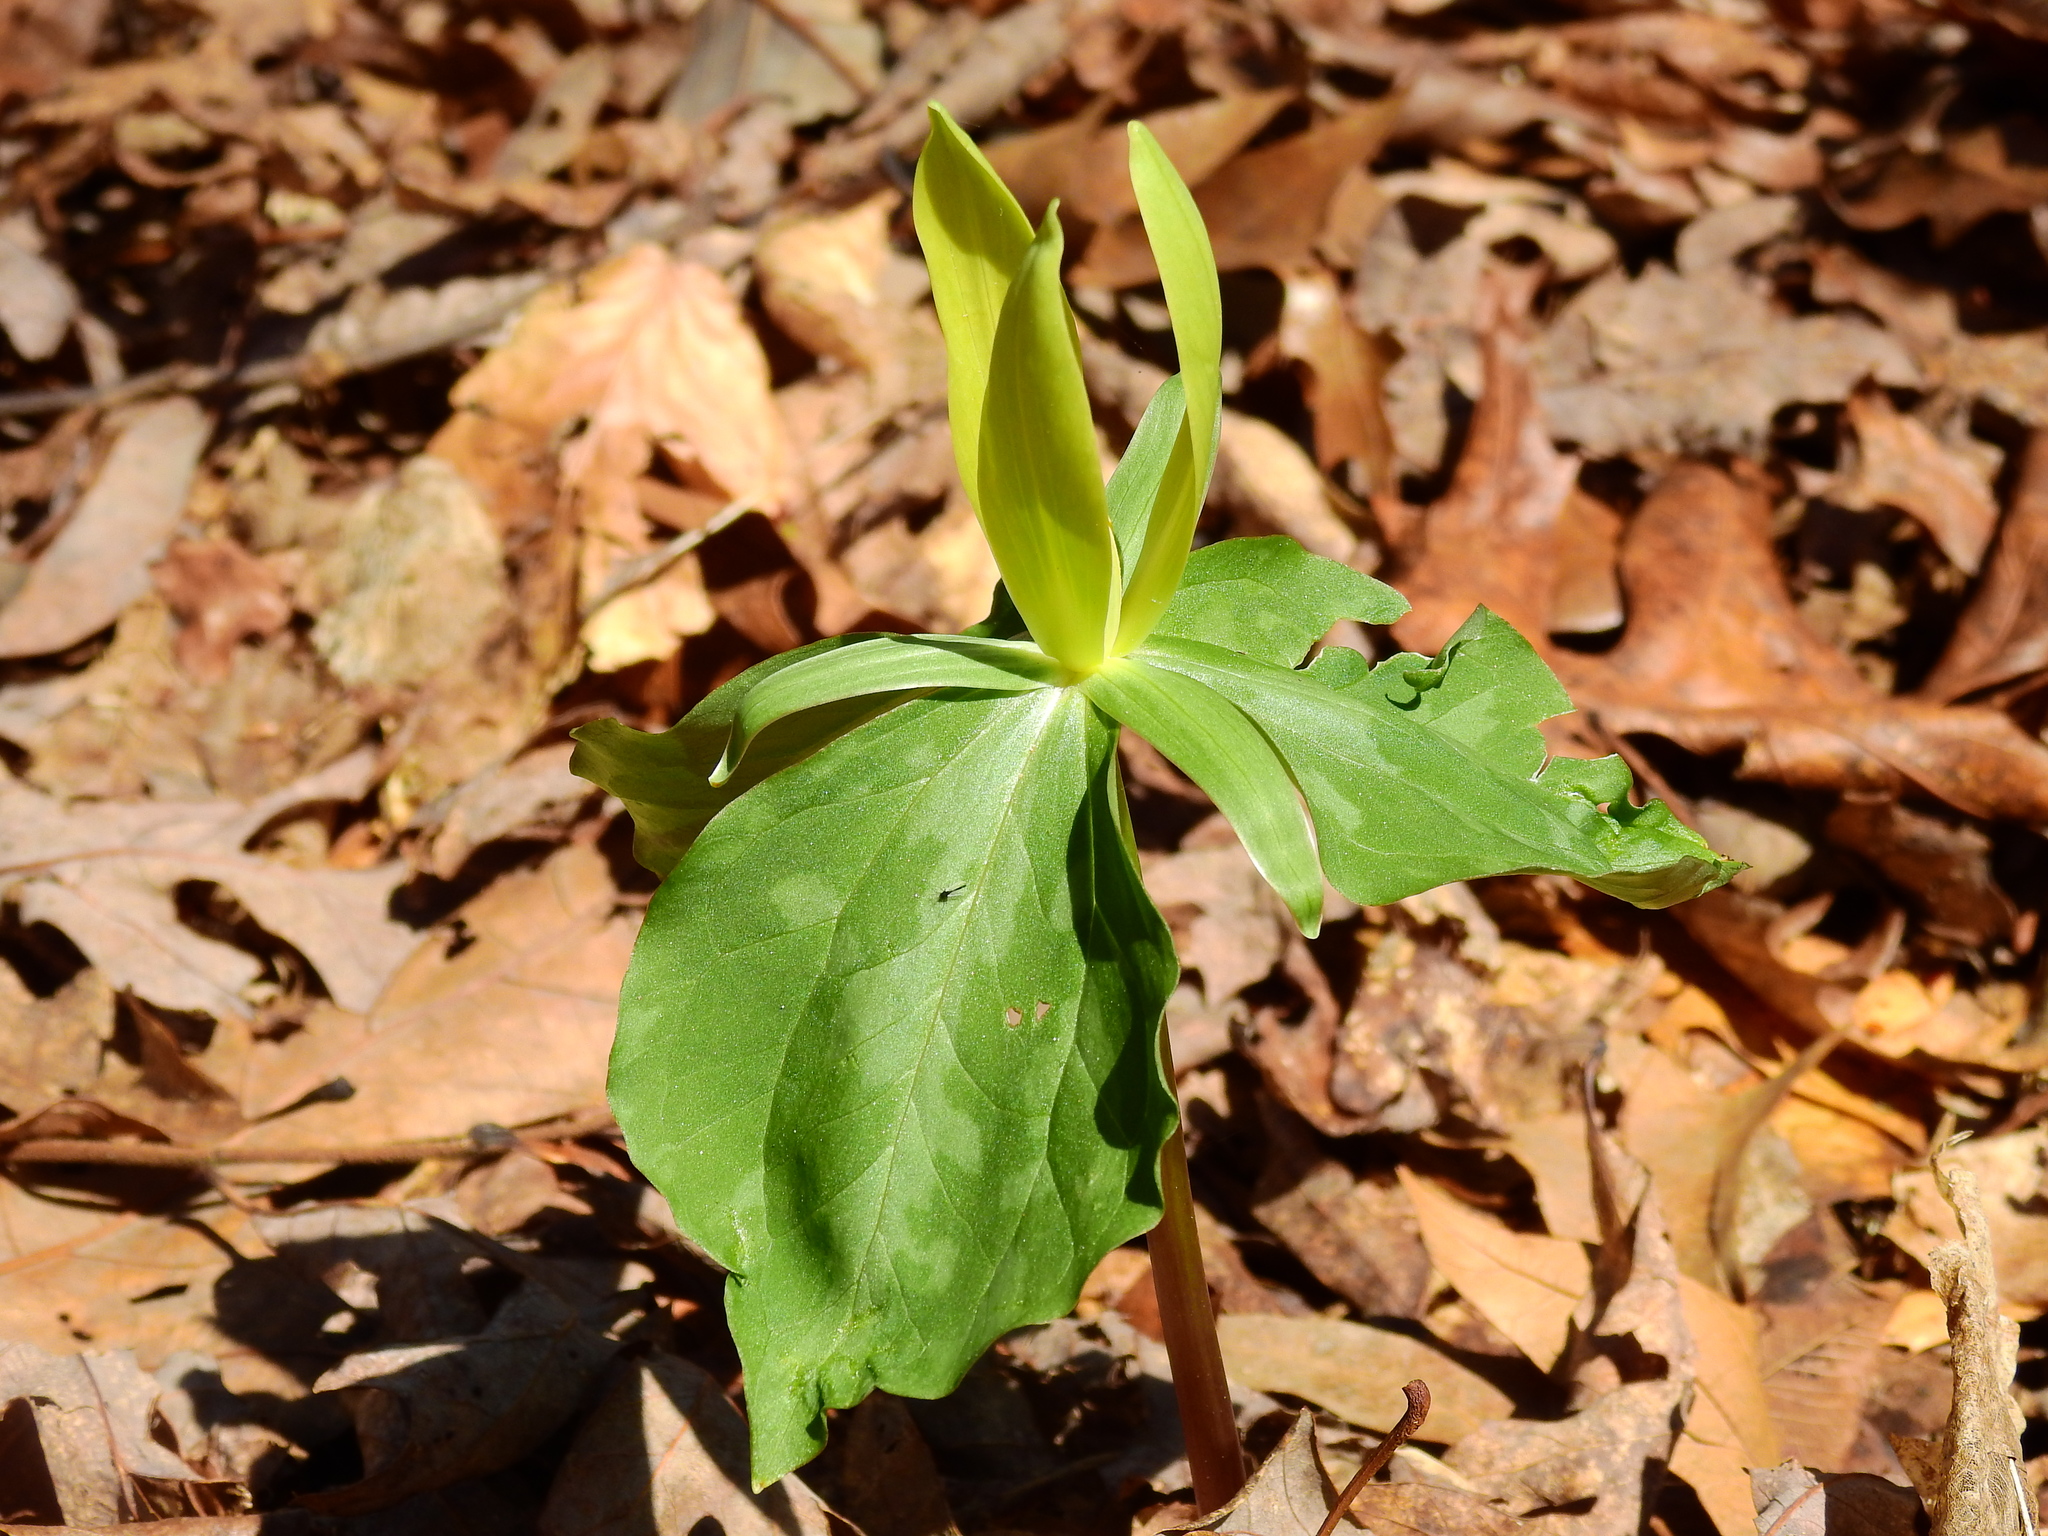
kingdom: Plantae
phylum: Tracheophyta
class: Liliopsida
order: Liliales
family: Melanthiaceae
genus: Trillium
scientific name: Trillium luteum
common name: Wax trillium
